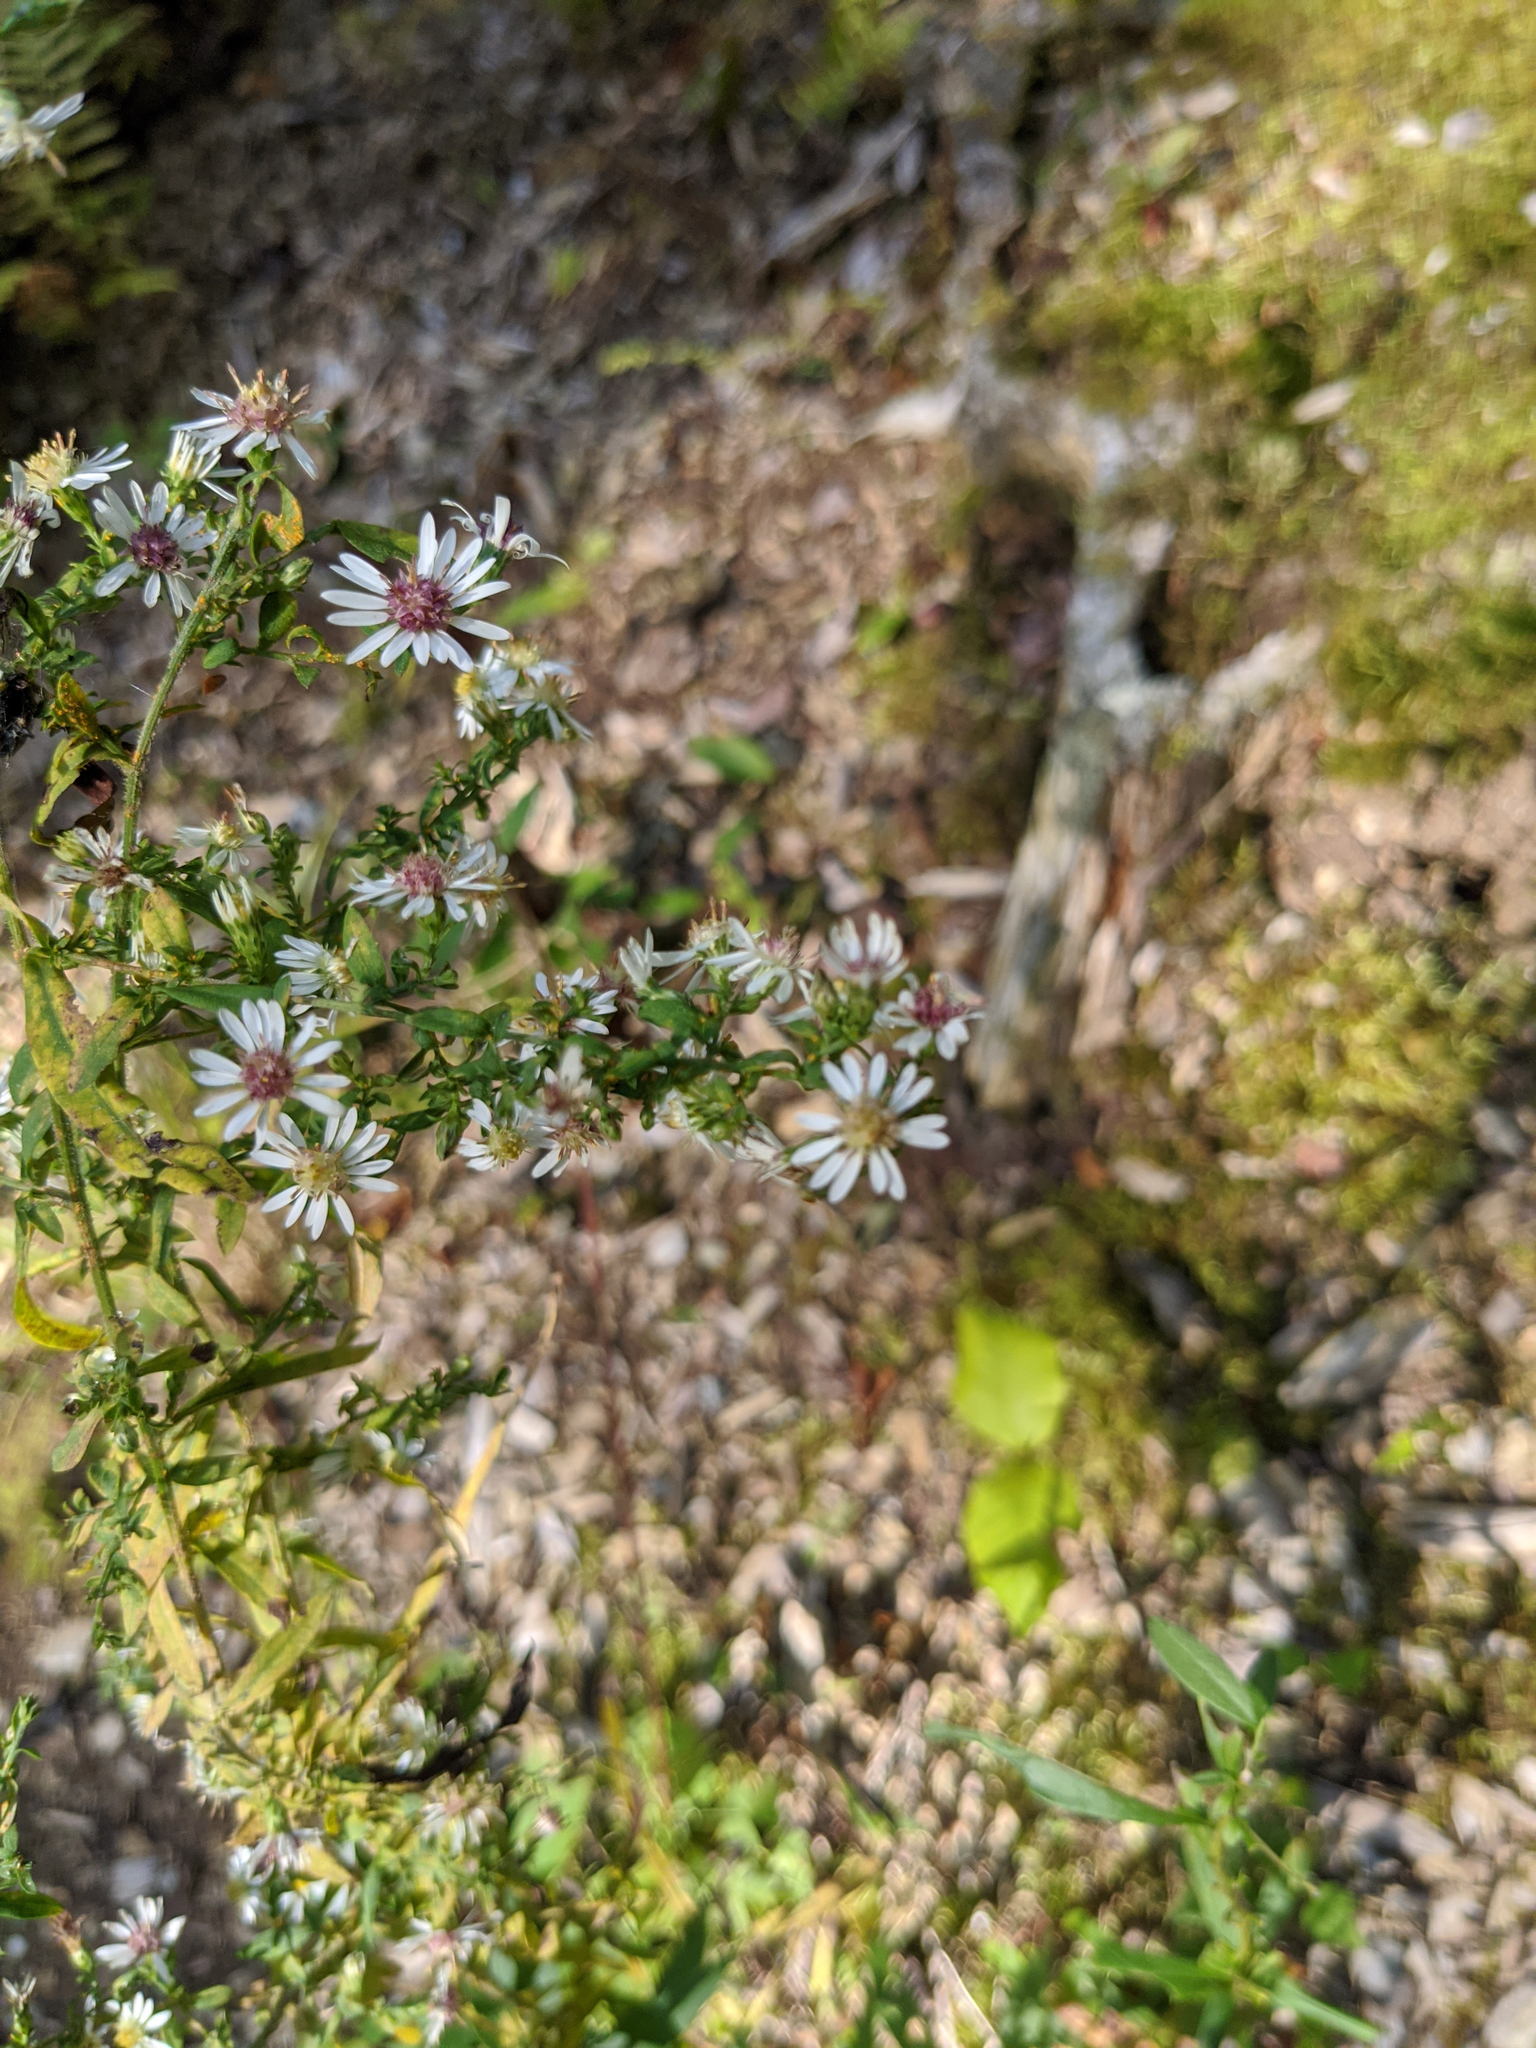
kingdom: Plantae
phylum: Tracheophyta
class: Magnoliopsida
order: Asterales
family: Asteraceae
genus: Symphyotrichum
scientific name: Symphyotrichum lateriflorum
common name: Calico aster
